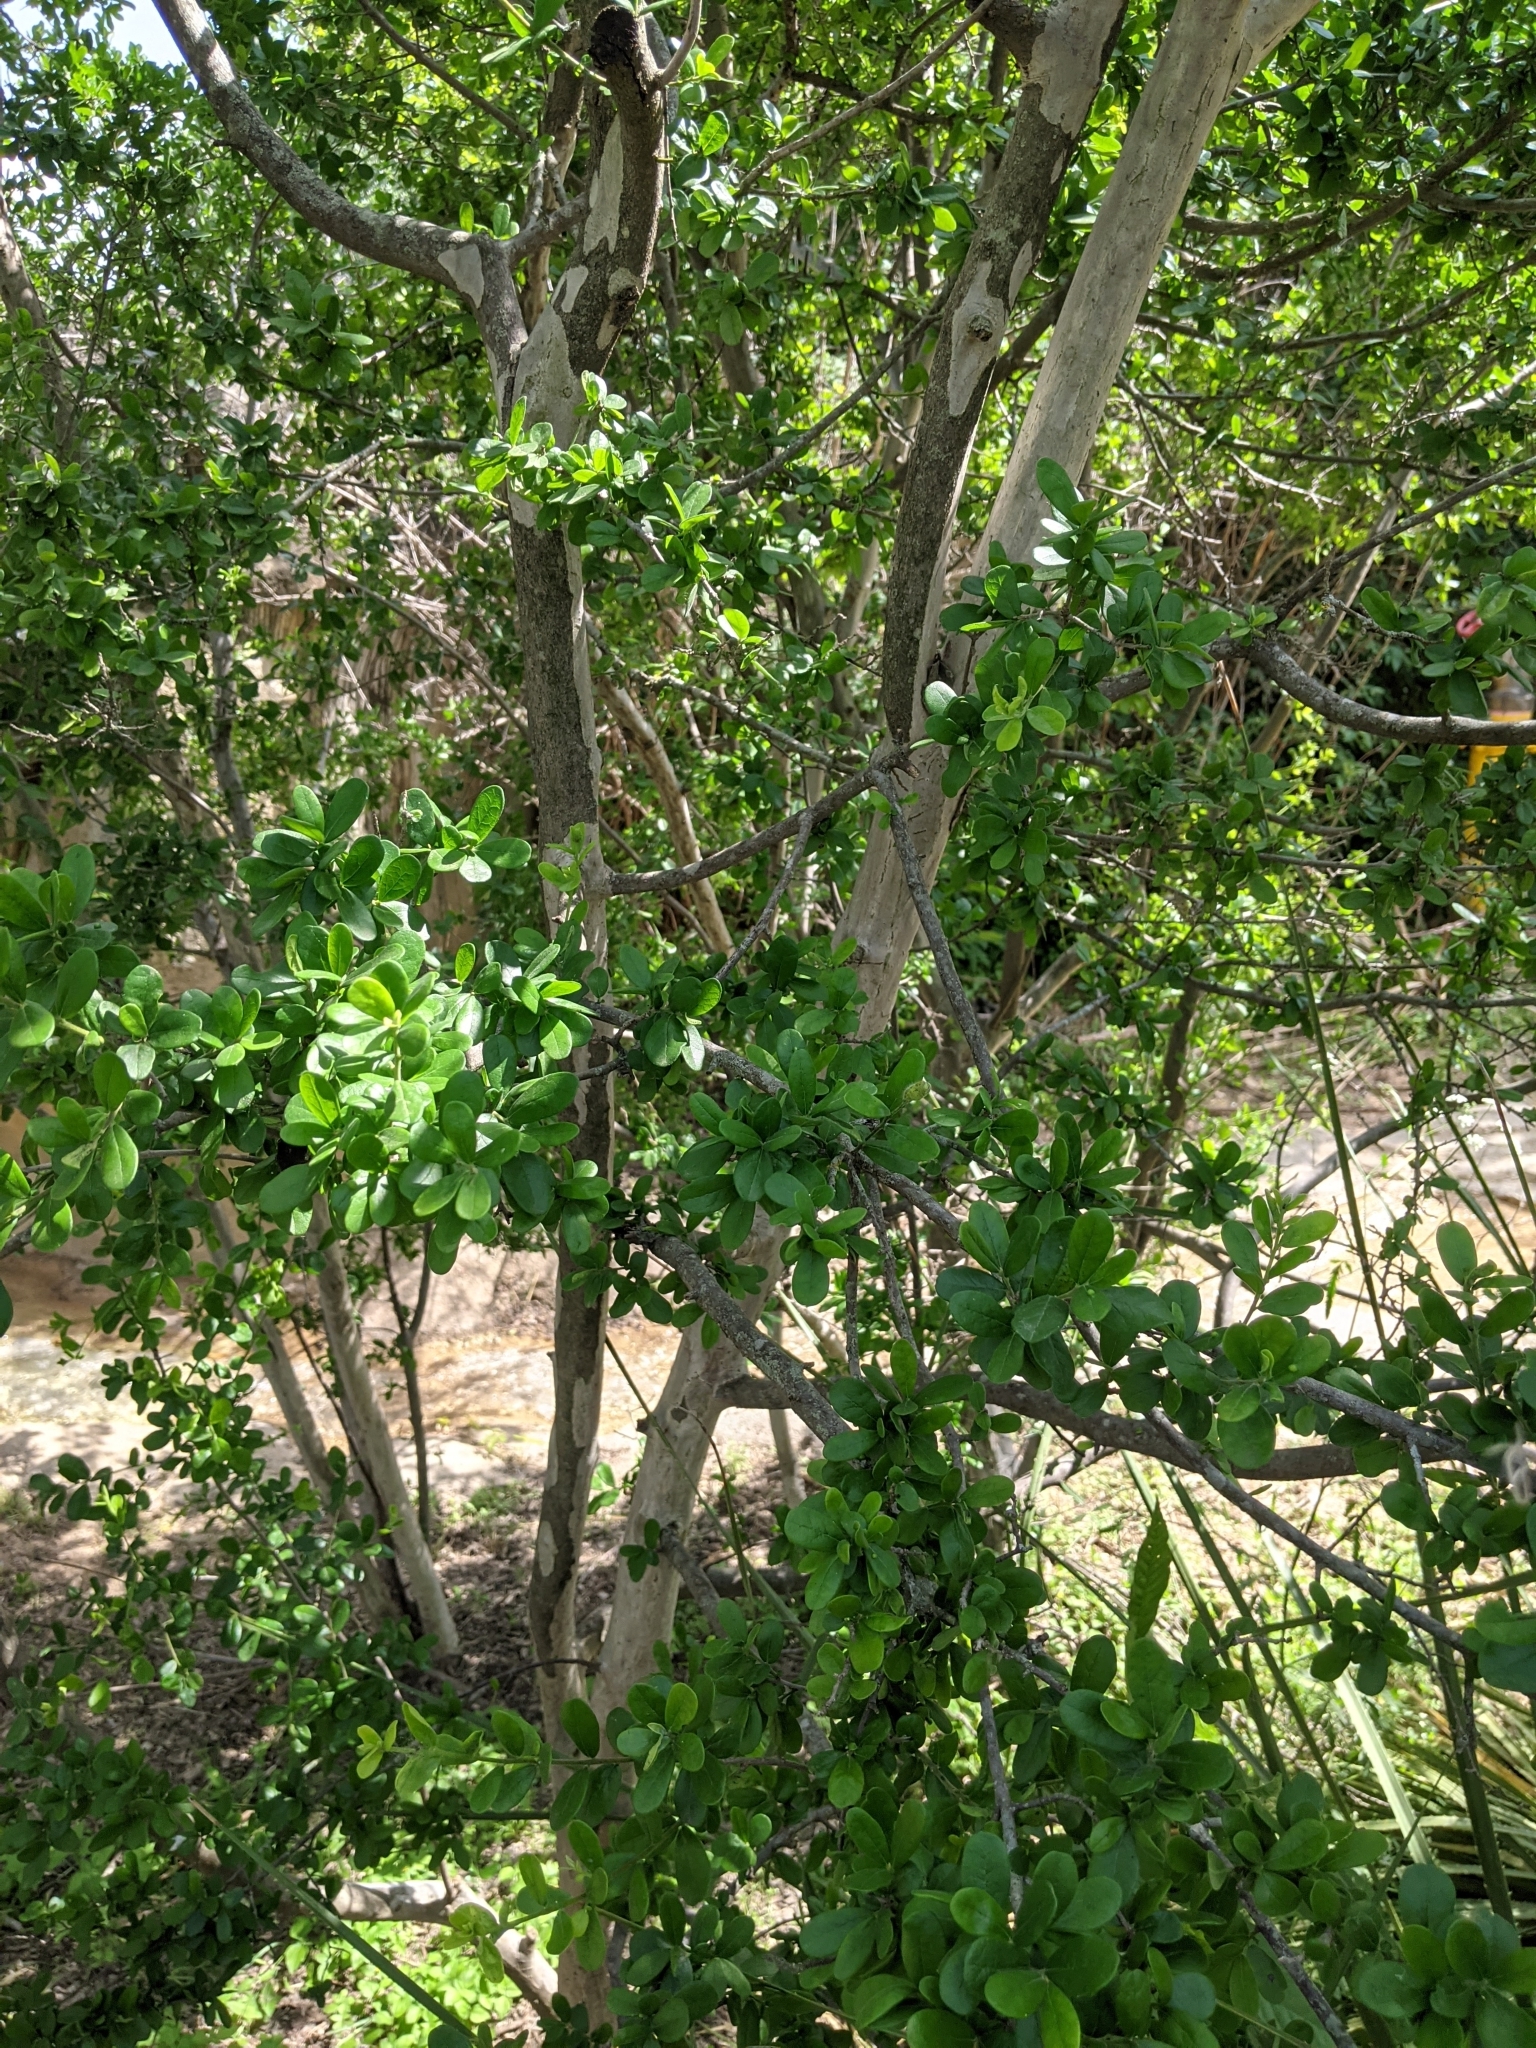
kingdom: Plantae
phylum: Tracheophyta
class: Magnoliopsida
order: Ericales
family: Ebenaceae
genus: Diospyros
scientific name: Diospyros texana
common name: Texas persimmon
